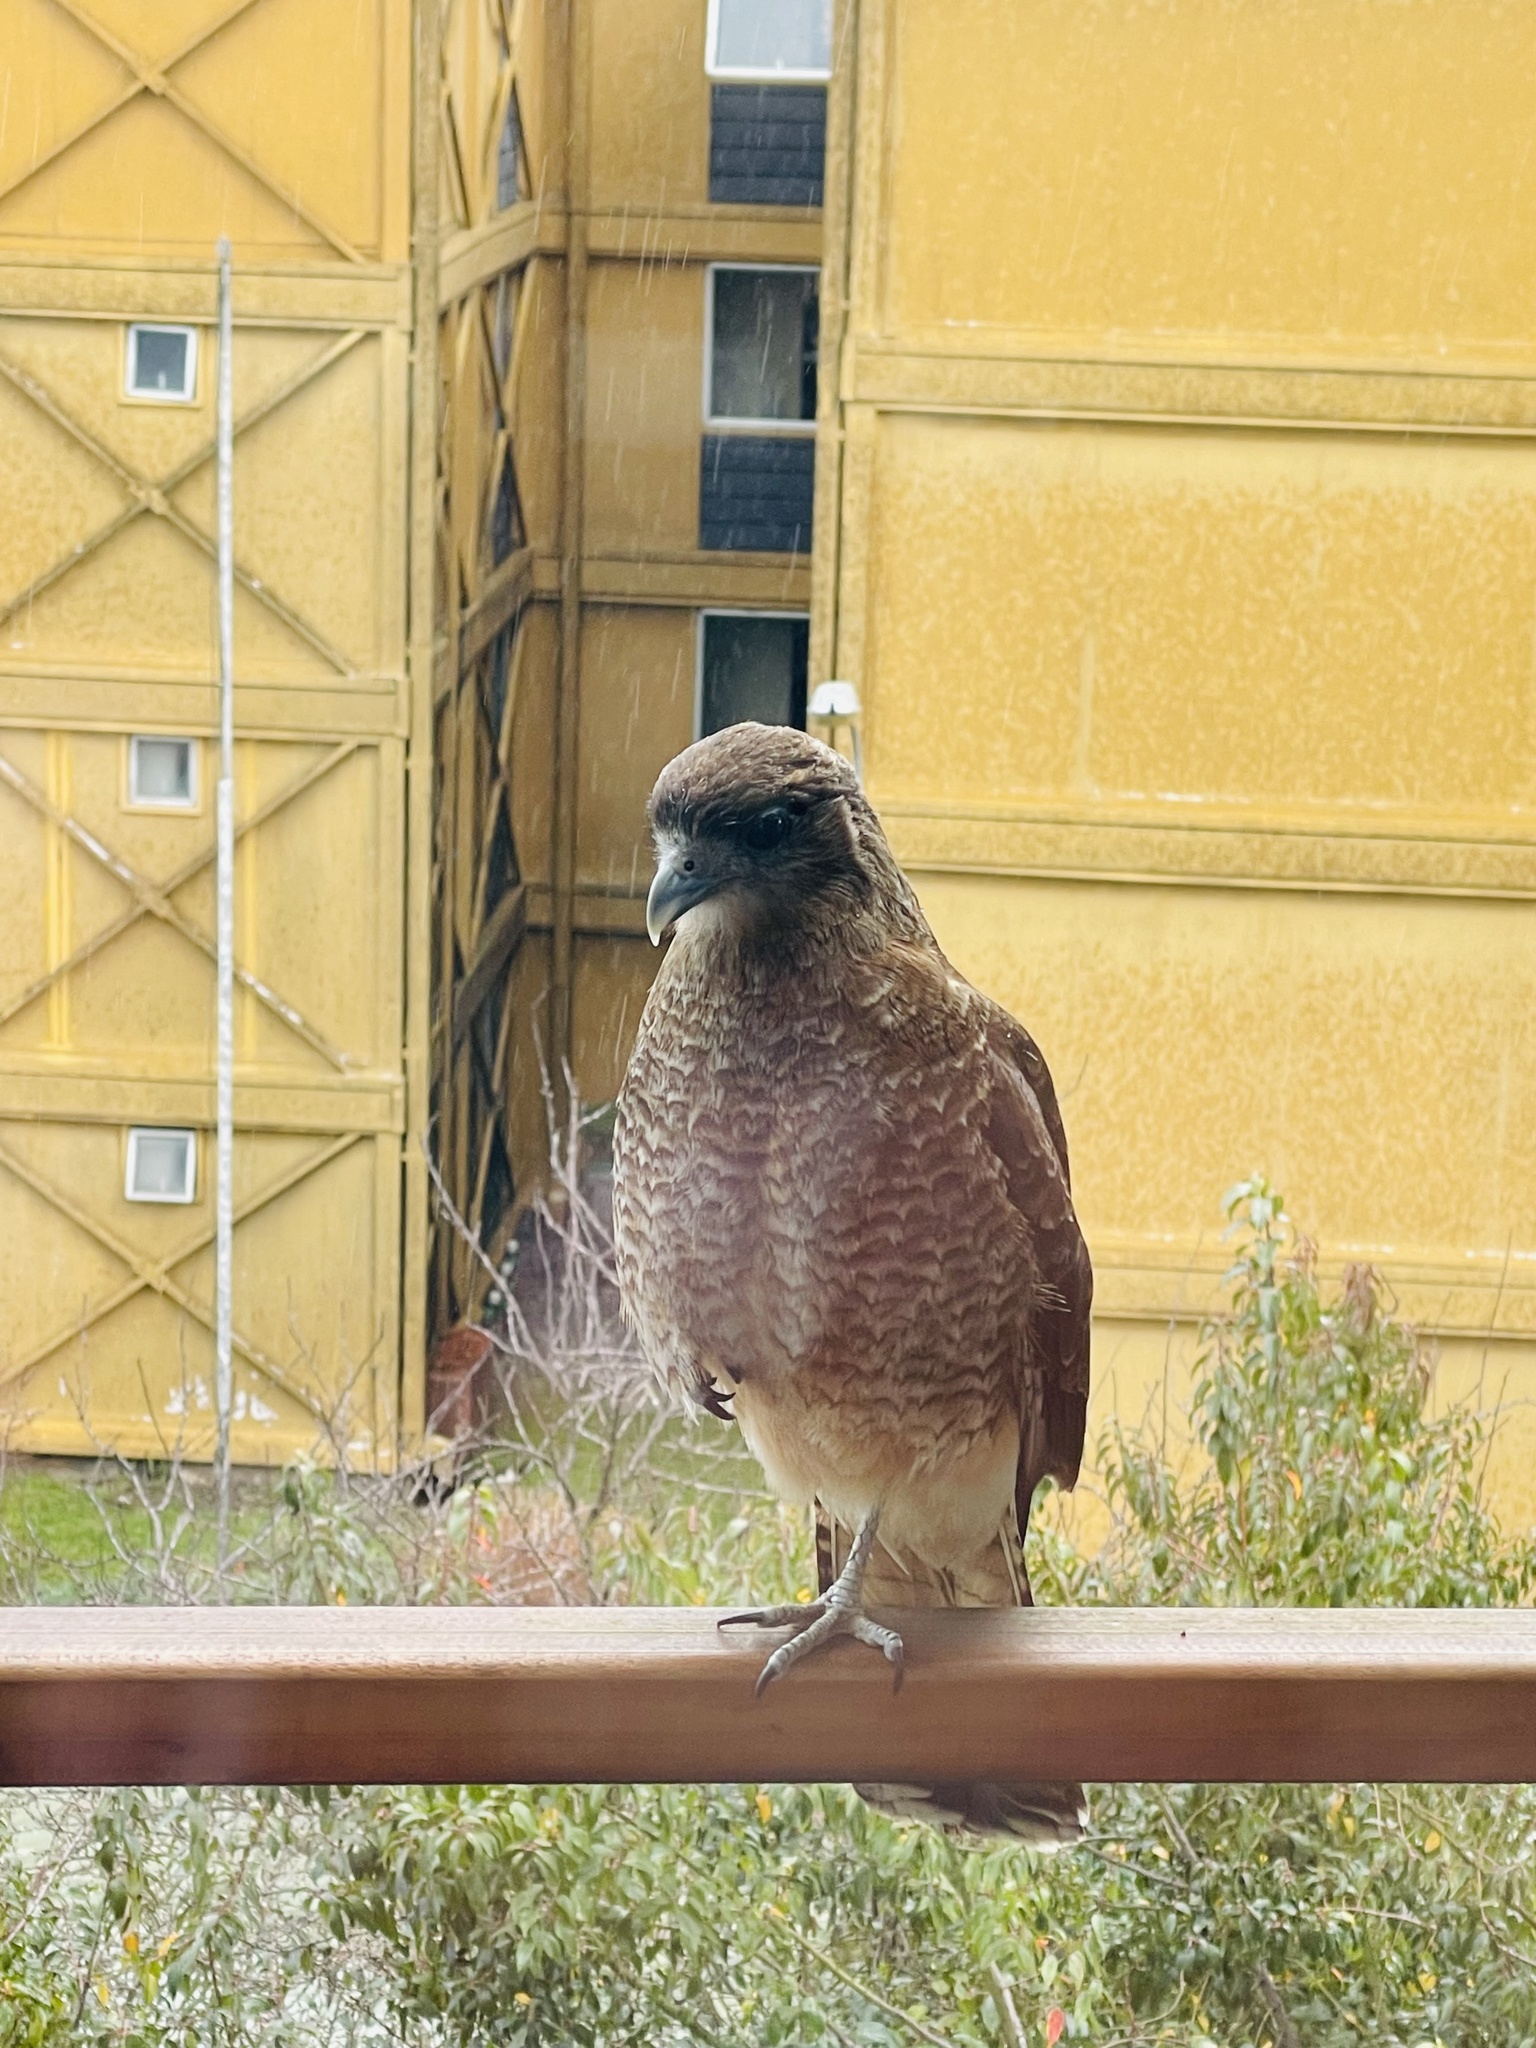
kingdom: Animalia
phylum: Chordata
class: Aves
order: Falconiformes
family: Falconidae
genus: Daptrius
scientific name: Daptrius
